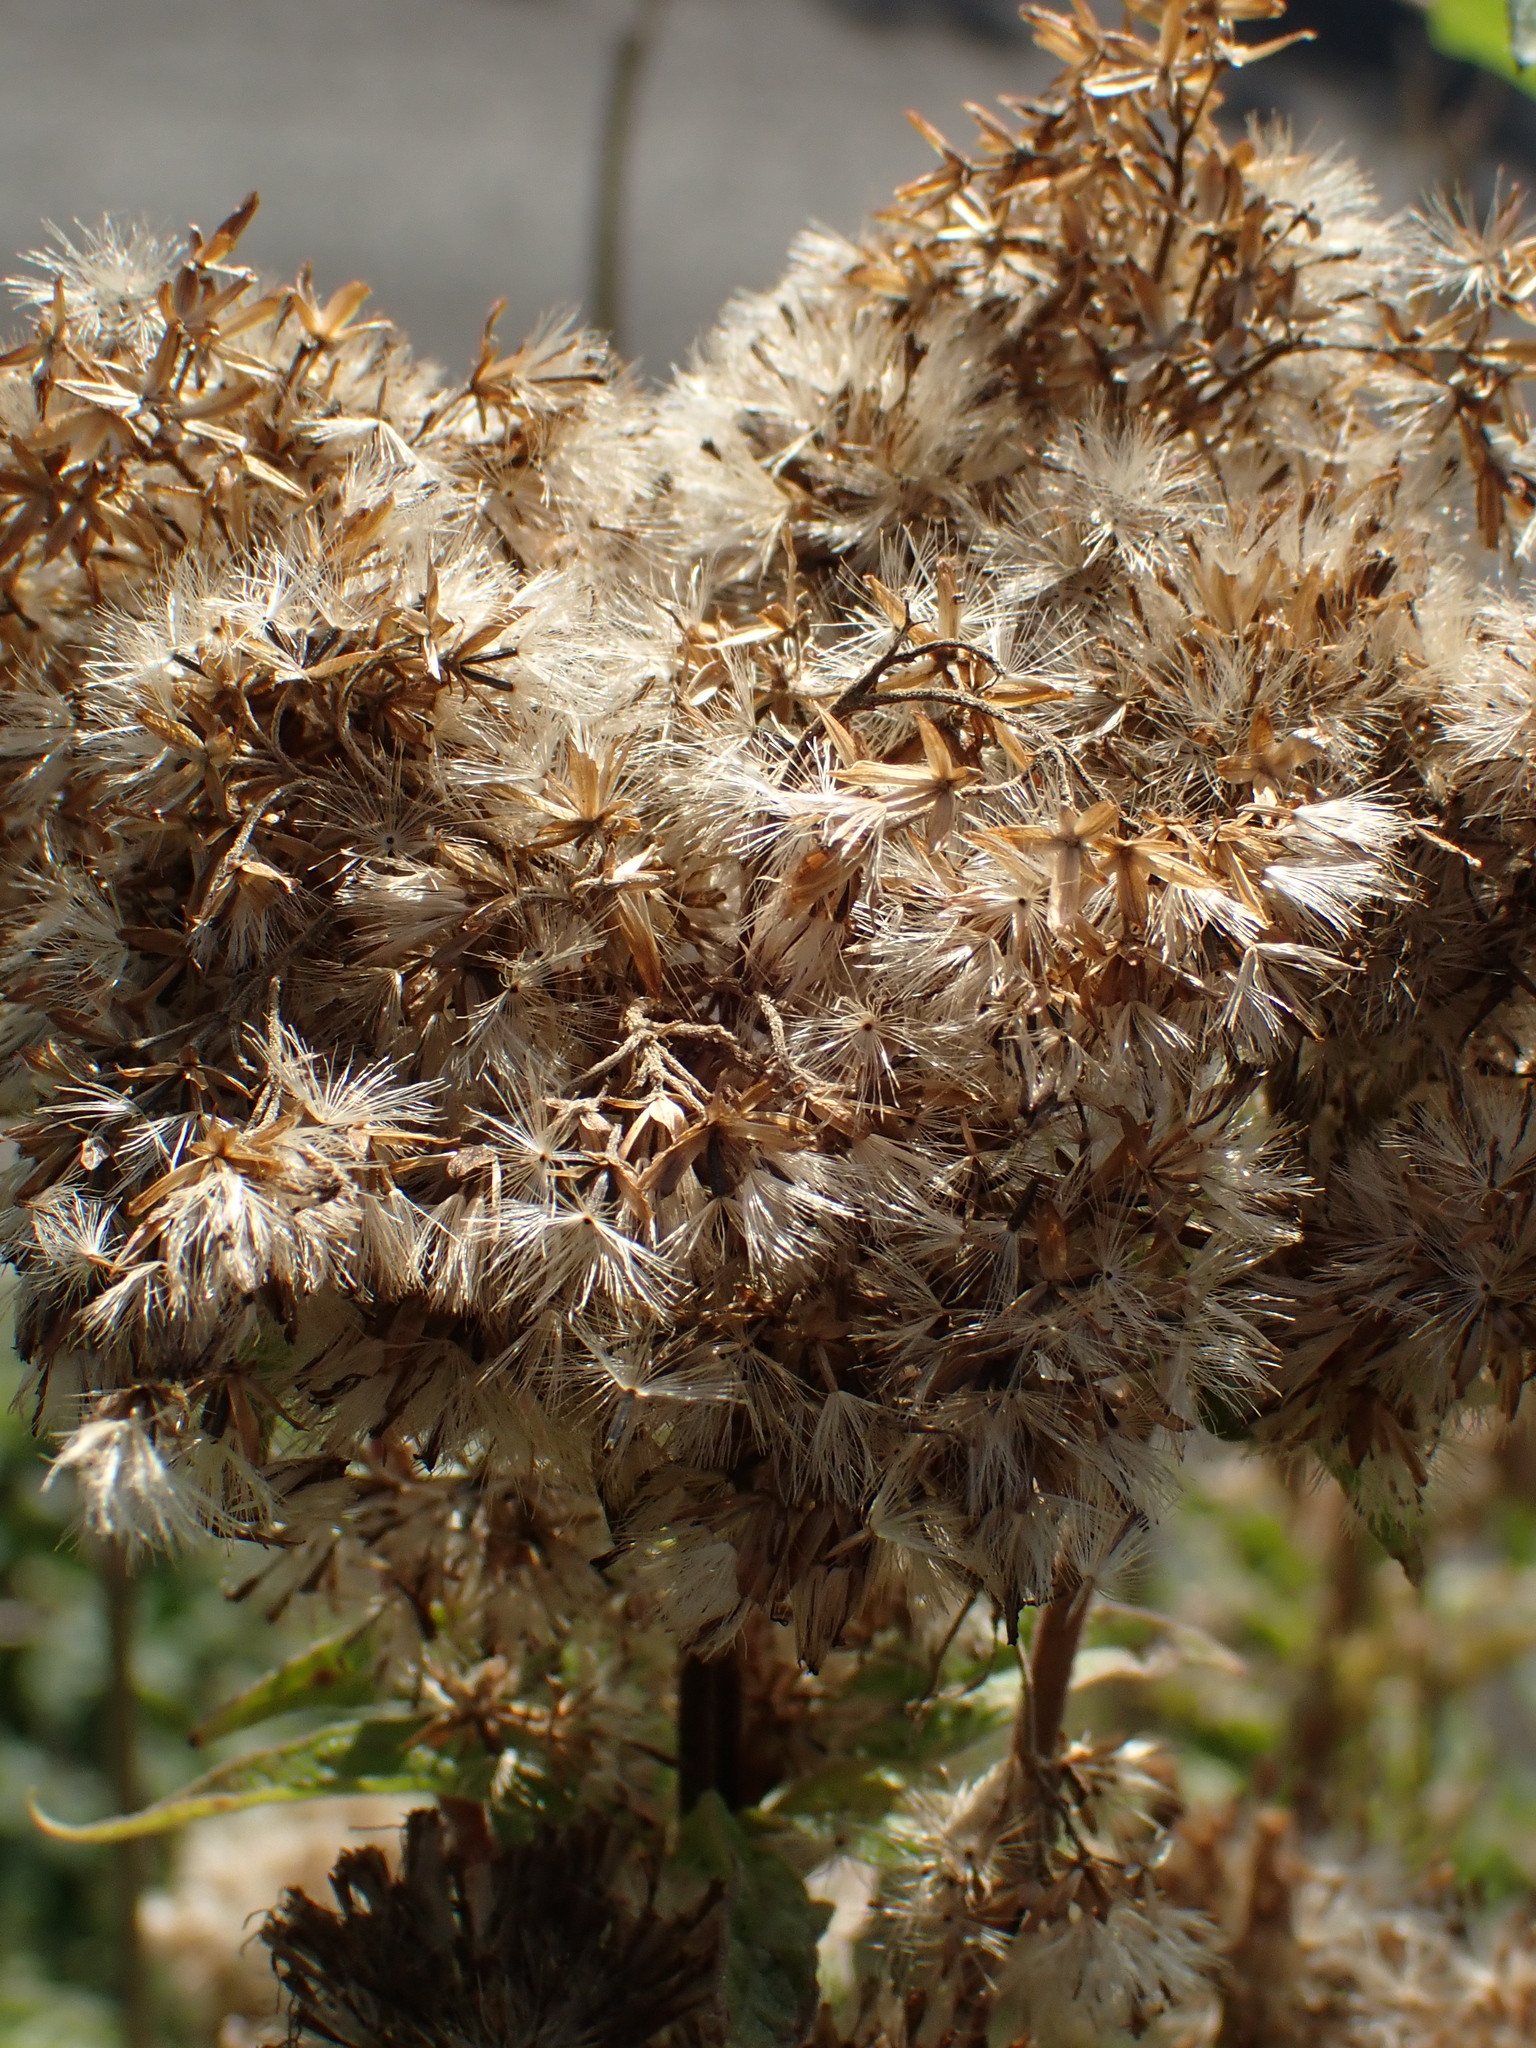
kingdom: Plantae
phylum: Tracheophyta
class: Magnoliopsida
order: Asterales
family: Asteraceae
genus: Eupatorium
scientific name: Eupatorium cannabinum
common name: Hemp-agrimony
